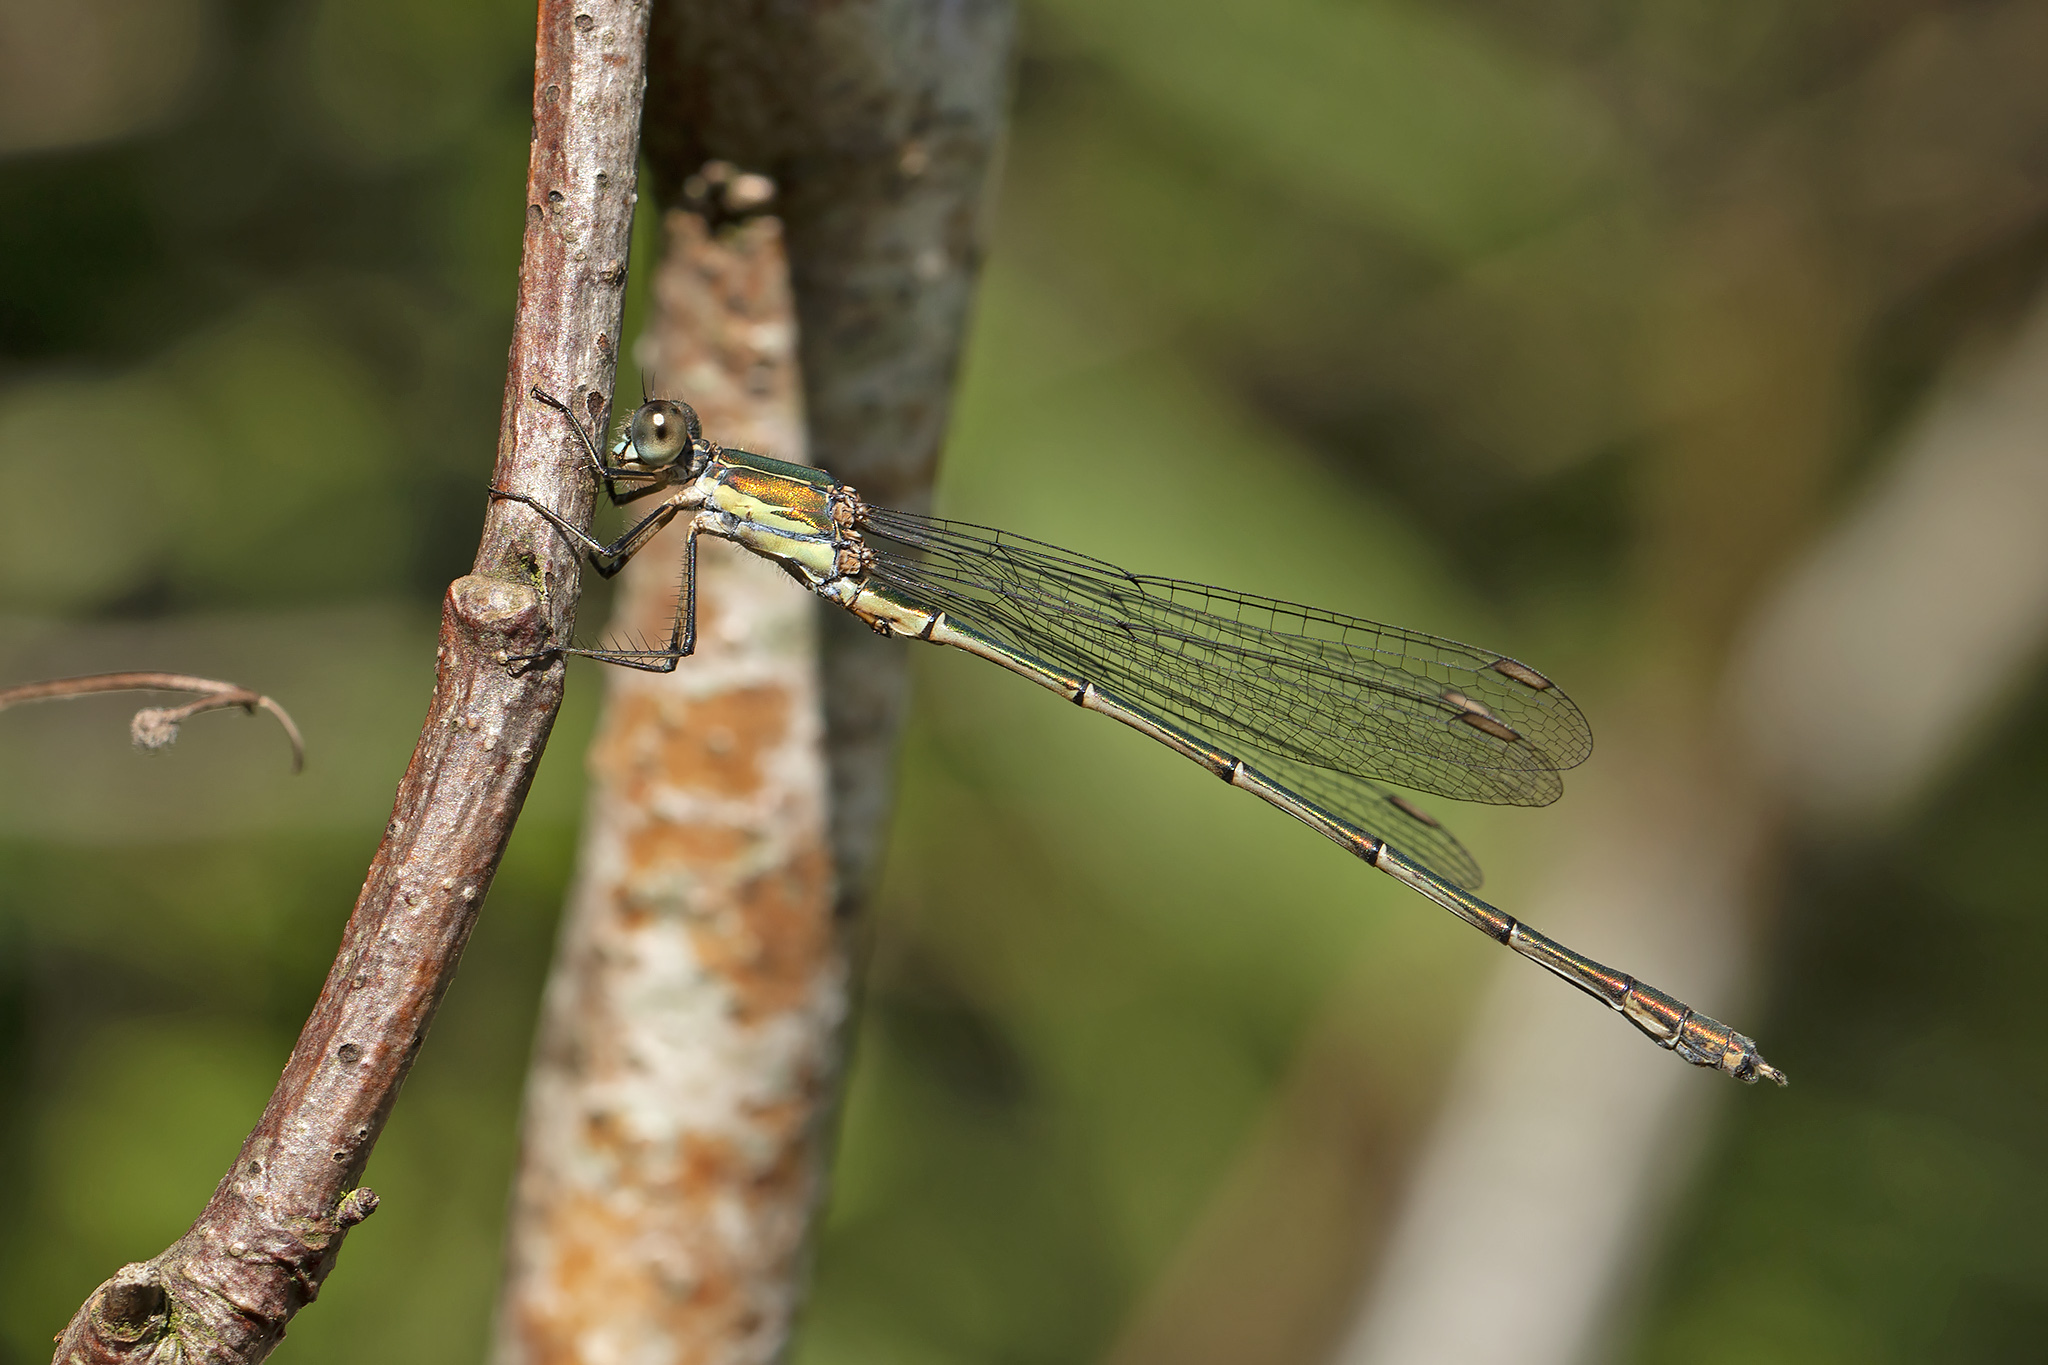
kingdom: Animalia
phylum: Arthropoda
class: Insecta
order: Odonata
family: Lestidae
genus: Chalcolestes
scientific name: Chalcolestes viridis
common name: Green emerald damselfly
